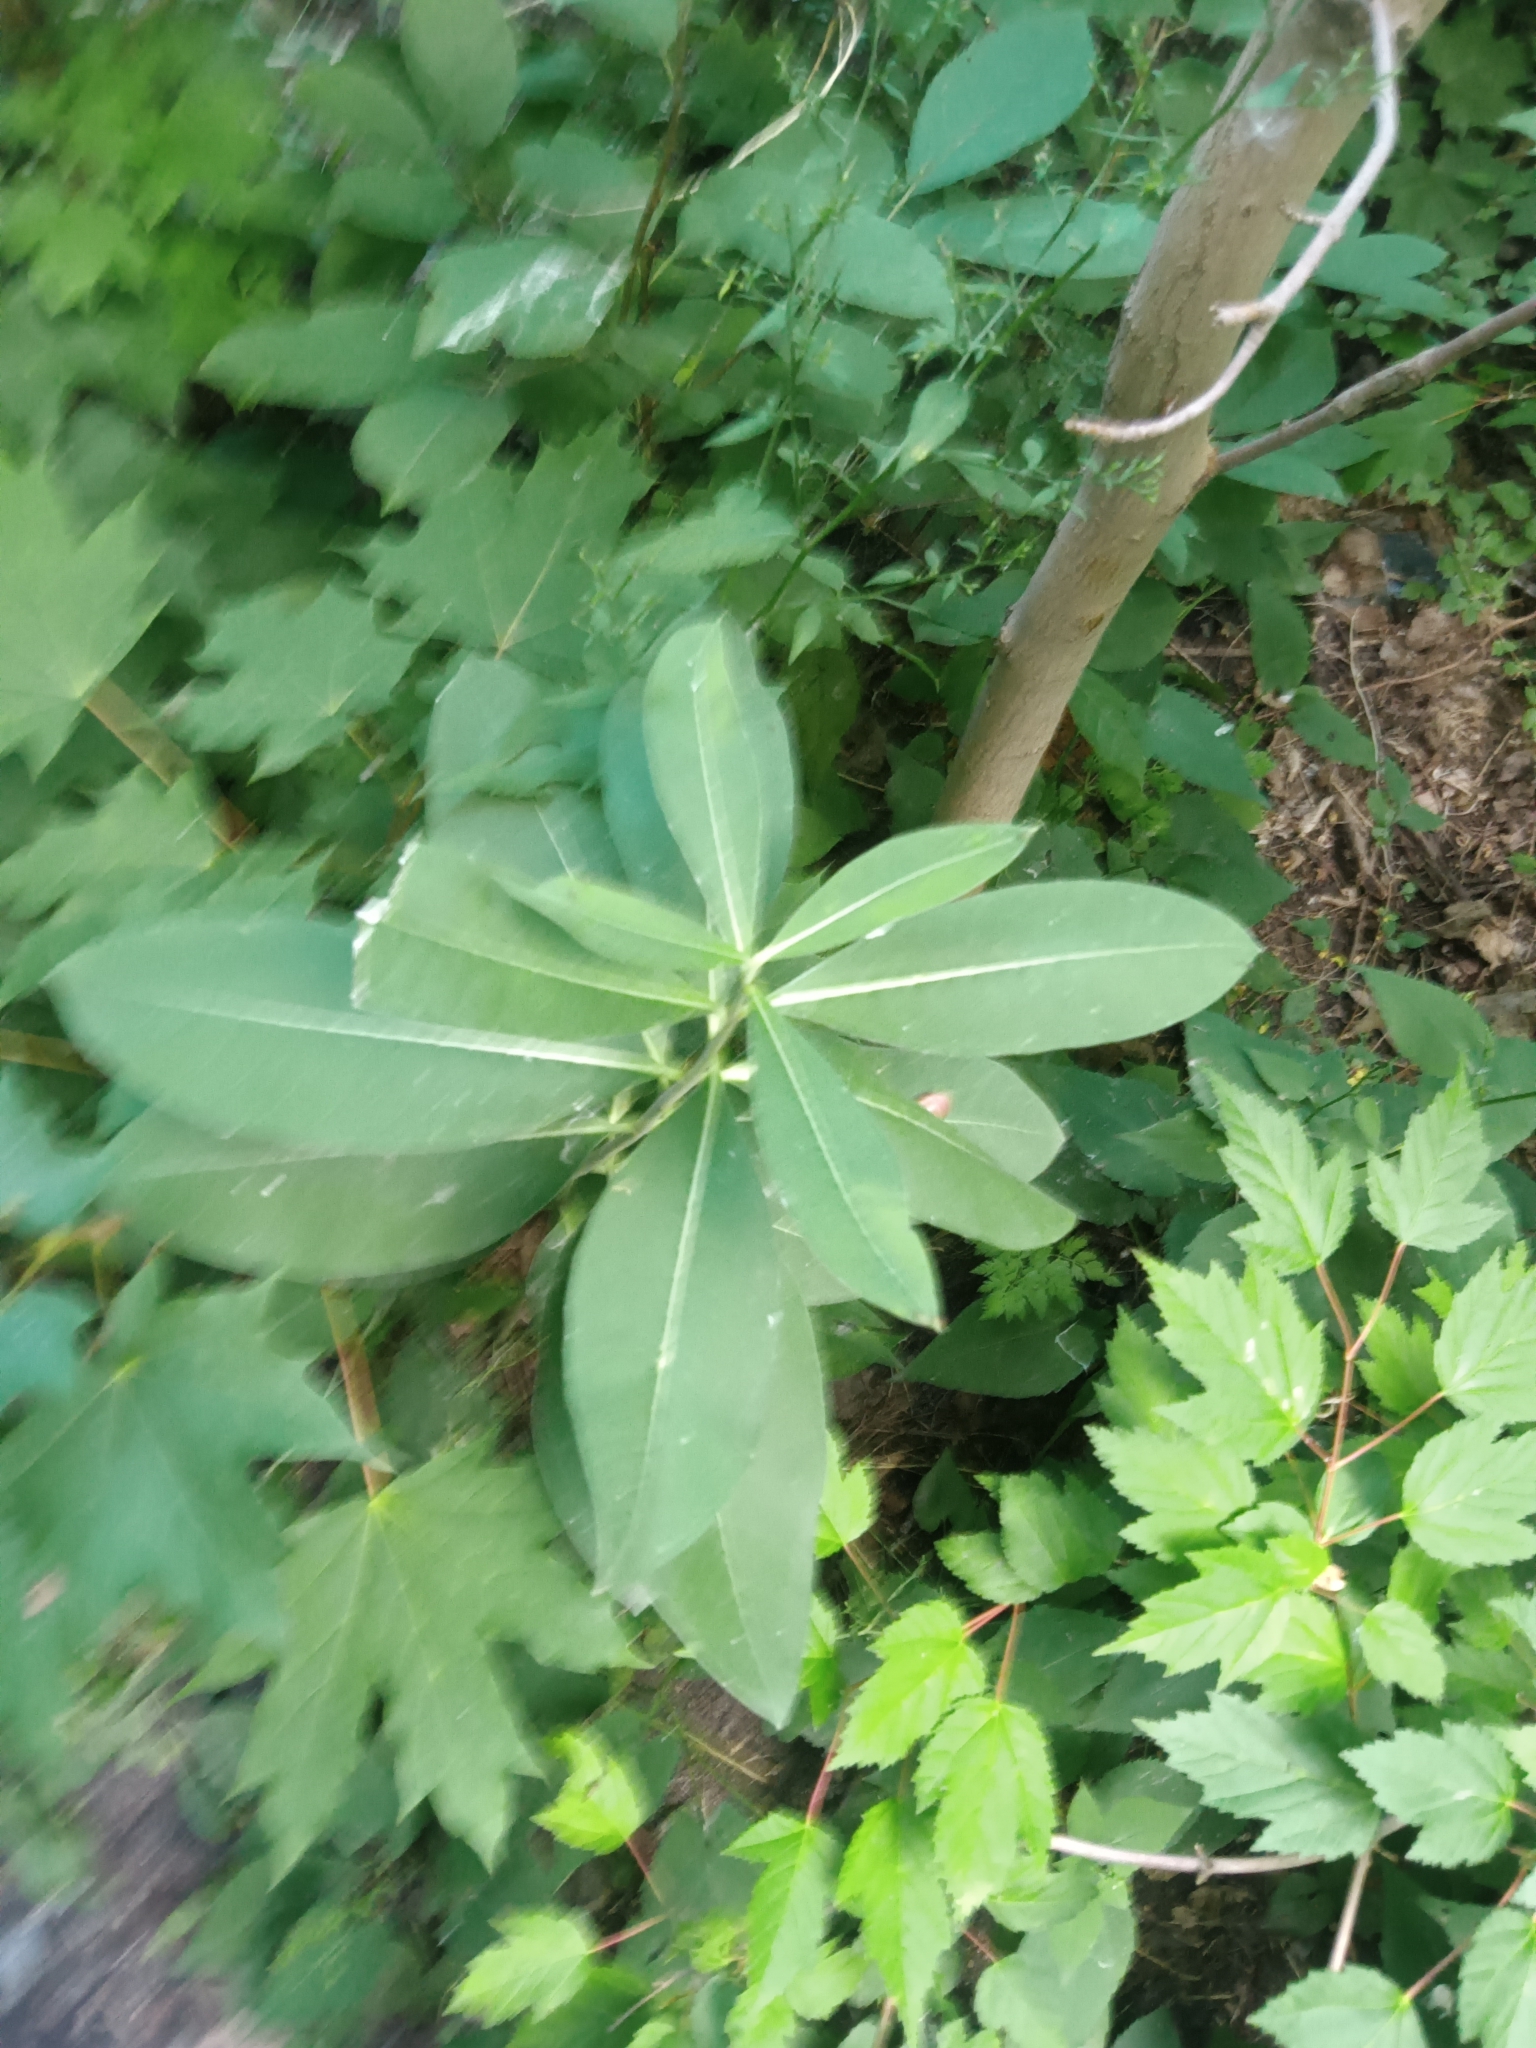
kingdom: Plantae
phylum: Tracheophyta
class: Magnoliopsida
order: Gentianales
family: Apocynaceae
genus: Asclepias
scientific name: Asclepias syriaca
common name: Common milkweed
